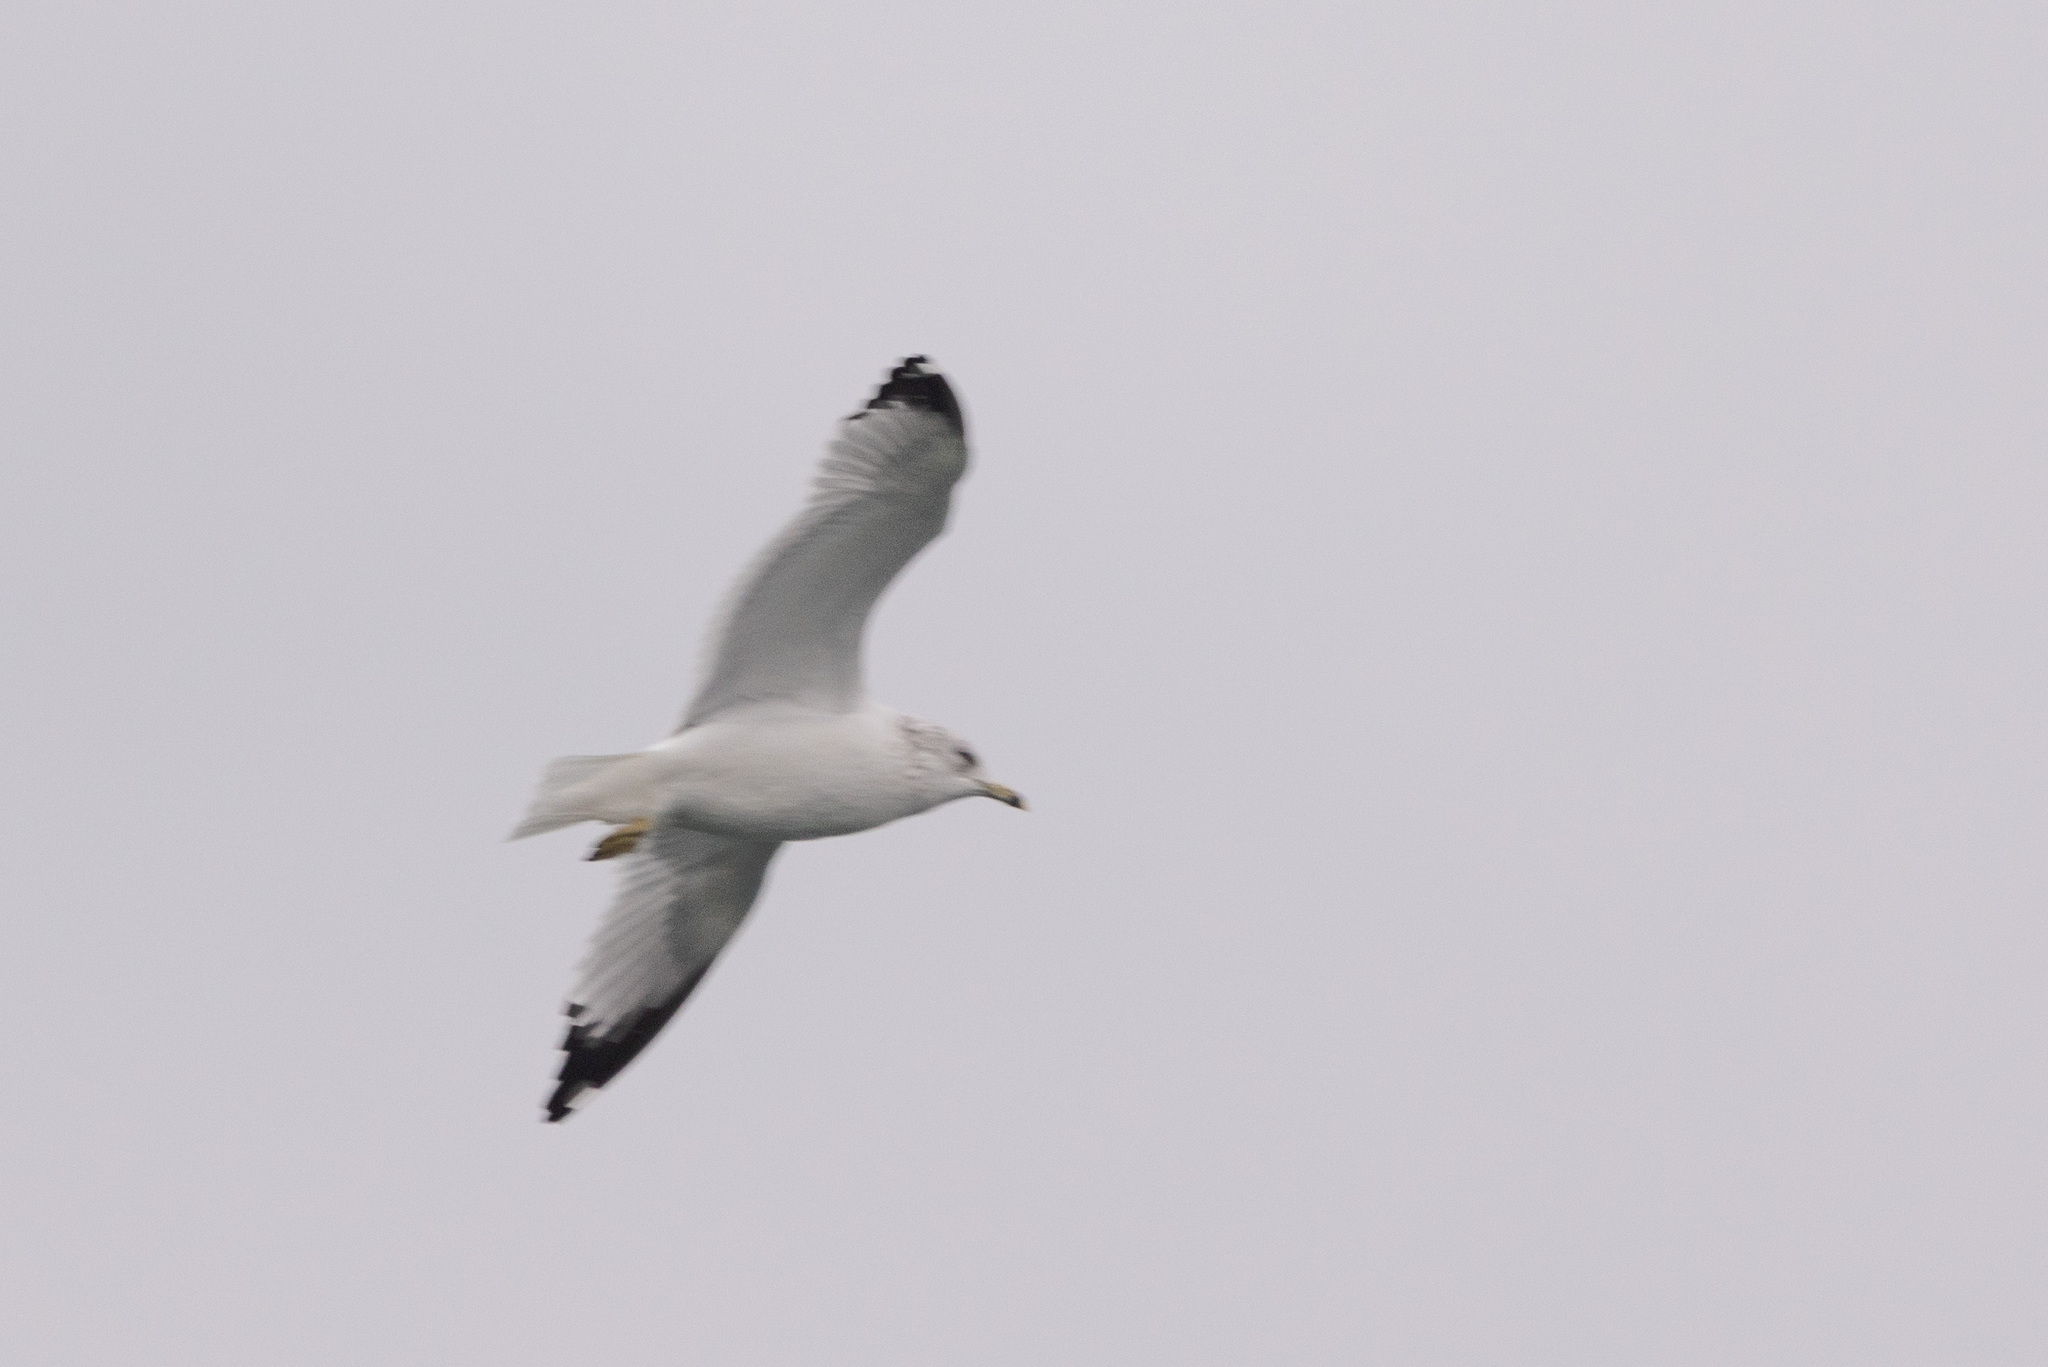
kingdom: Animalia
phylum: Chordata
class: Aves
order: Charadriiformes
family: Laridae
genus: Larus
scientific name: Larus delawarensis
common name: Ring-billed gull
